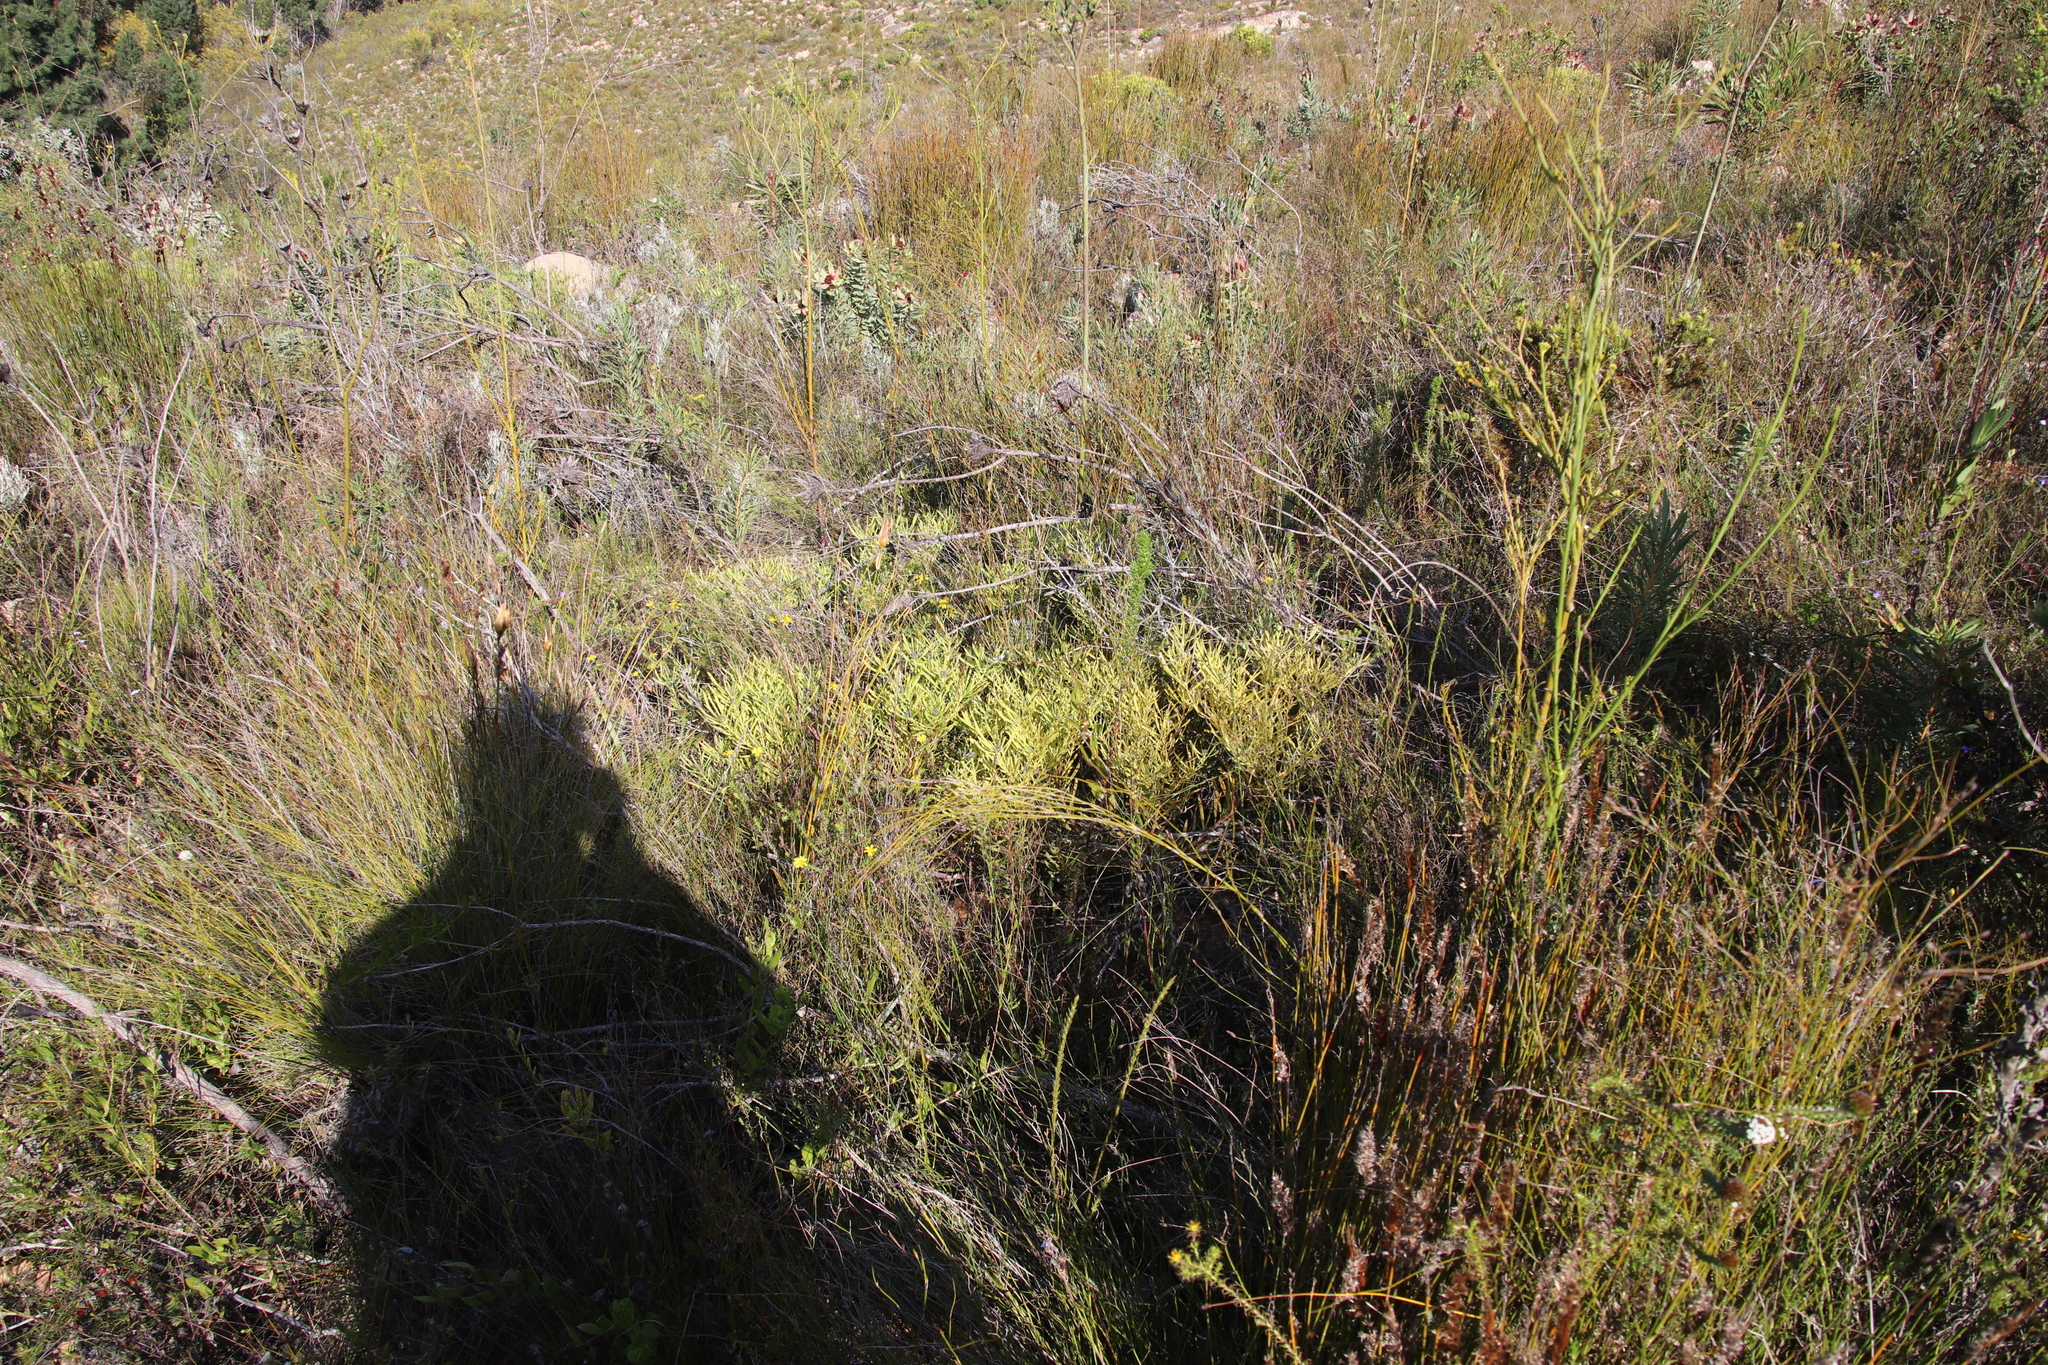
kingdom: Plantae
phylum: Tracheophyta
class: Magnoliopsida
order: Proteales
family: Proteaceae
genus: Leucadendron
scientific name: Leucadendron salignum
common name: Common sunshine conebush
